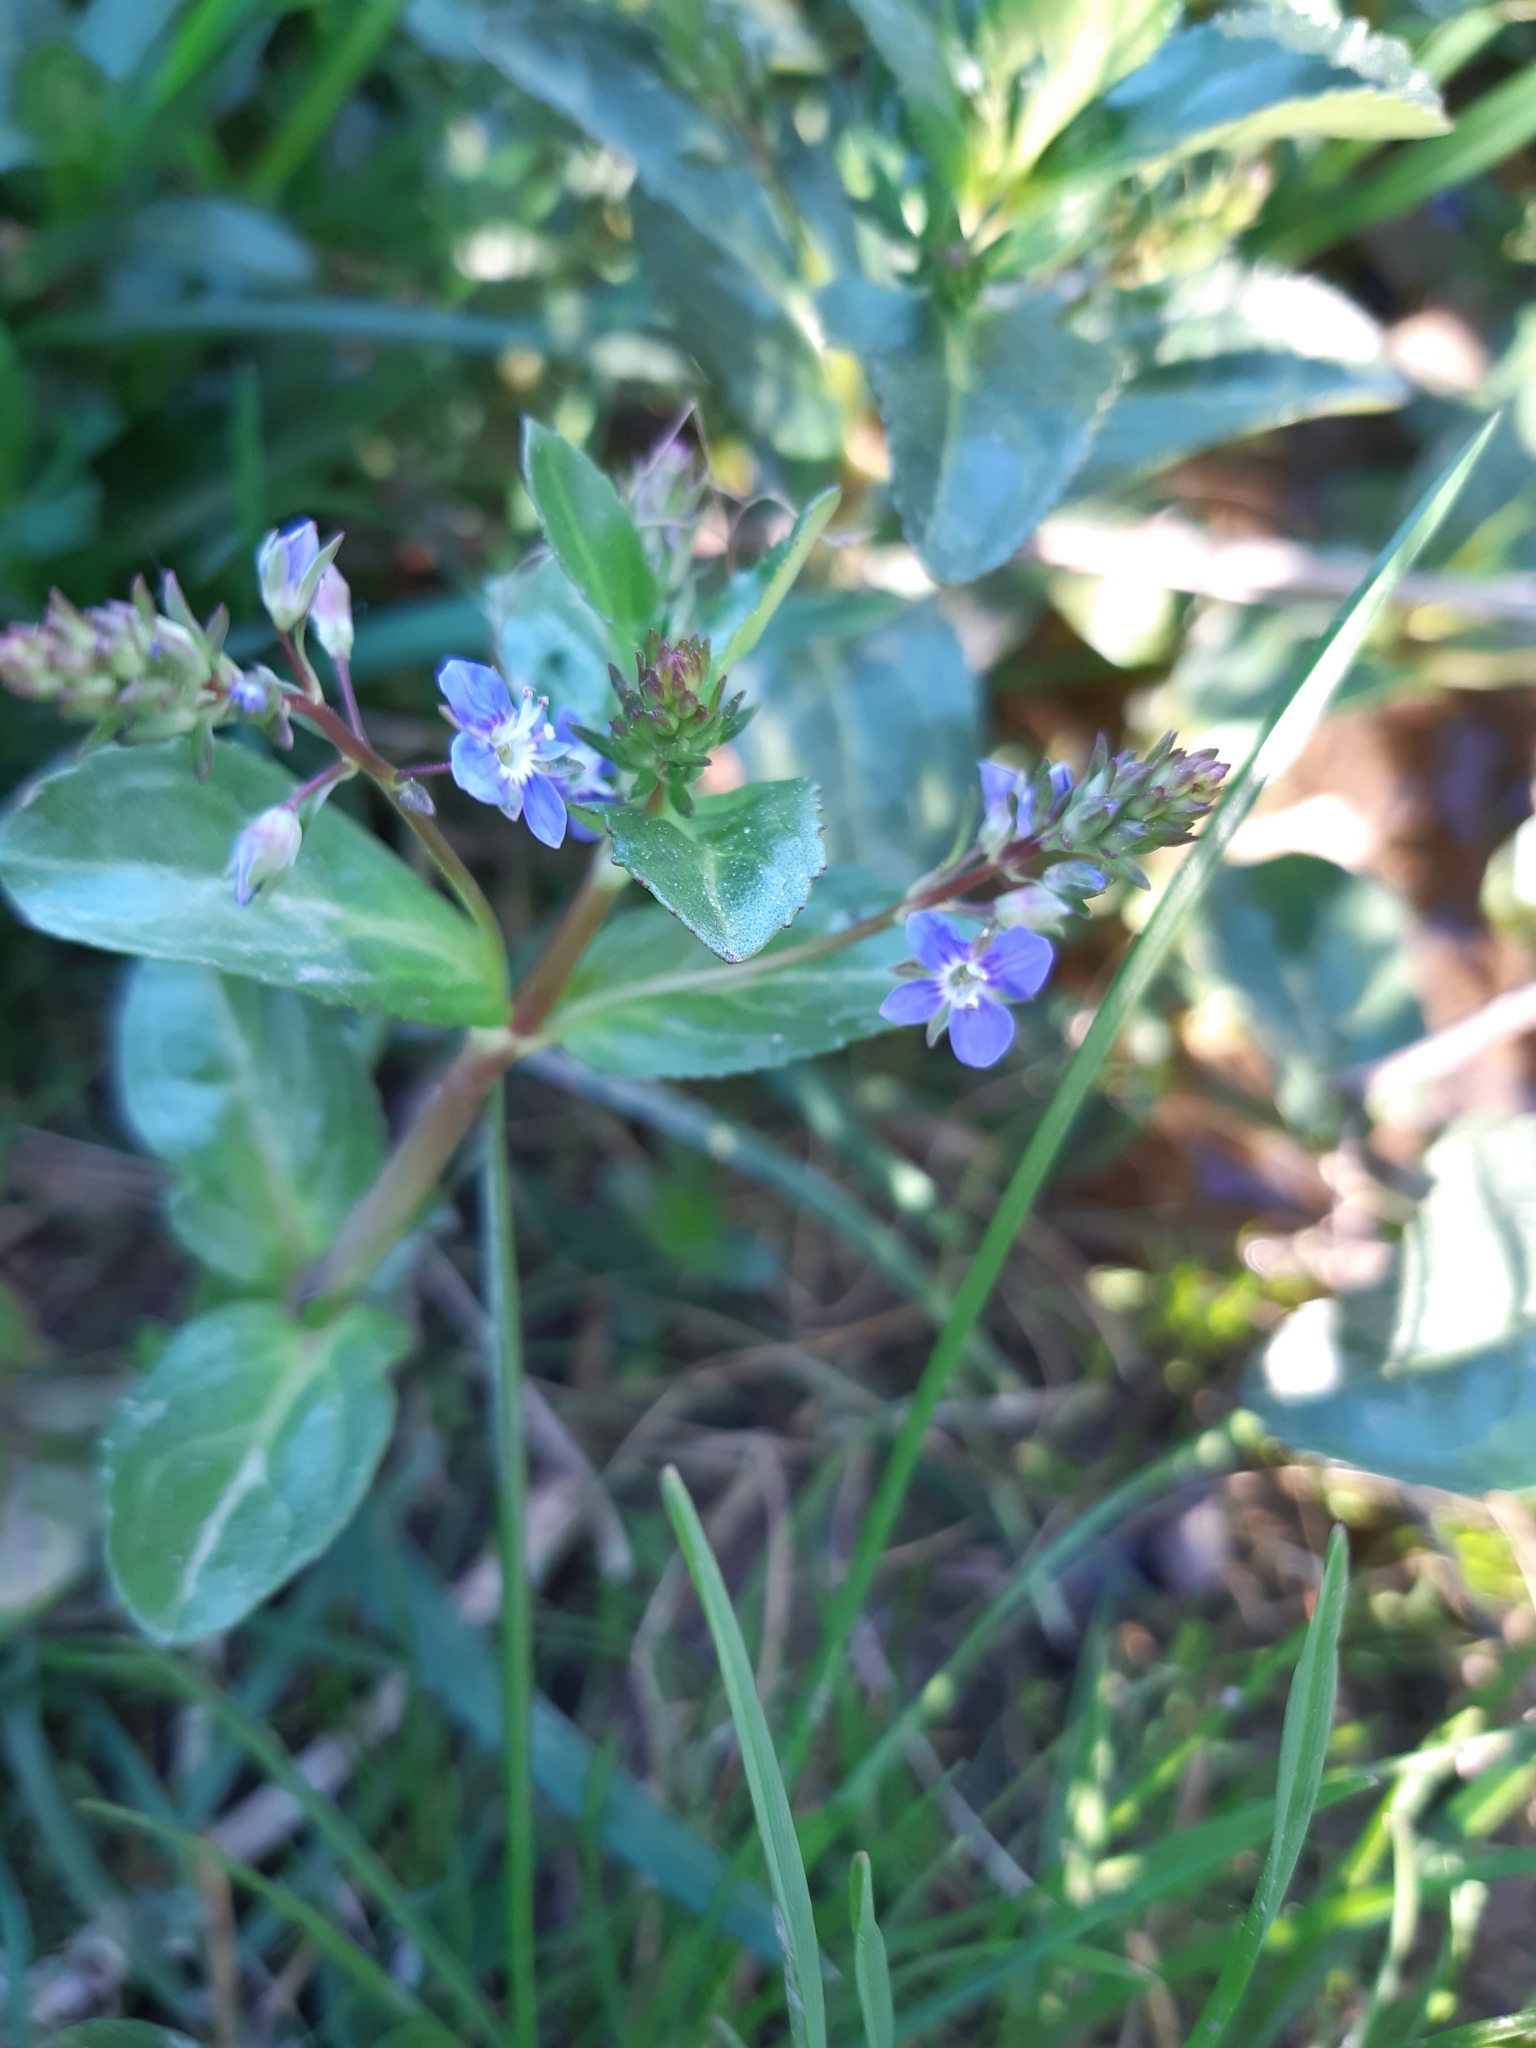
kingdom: Plantae
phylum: Tracheophyta
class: Magnoliopsida
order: Lamiales
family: Plantaginaceae
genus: Veronica
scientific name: Veronica beccabunga
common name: Brooklime
